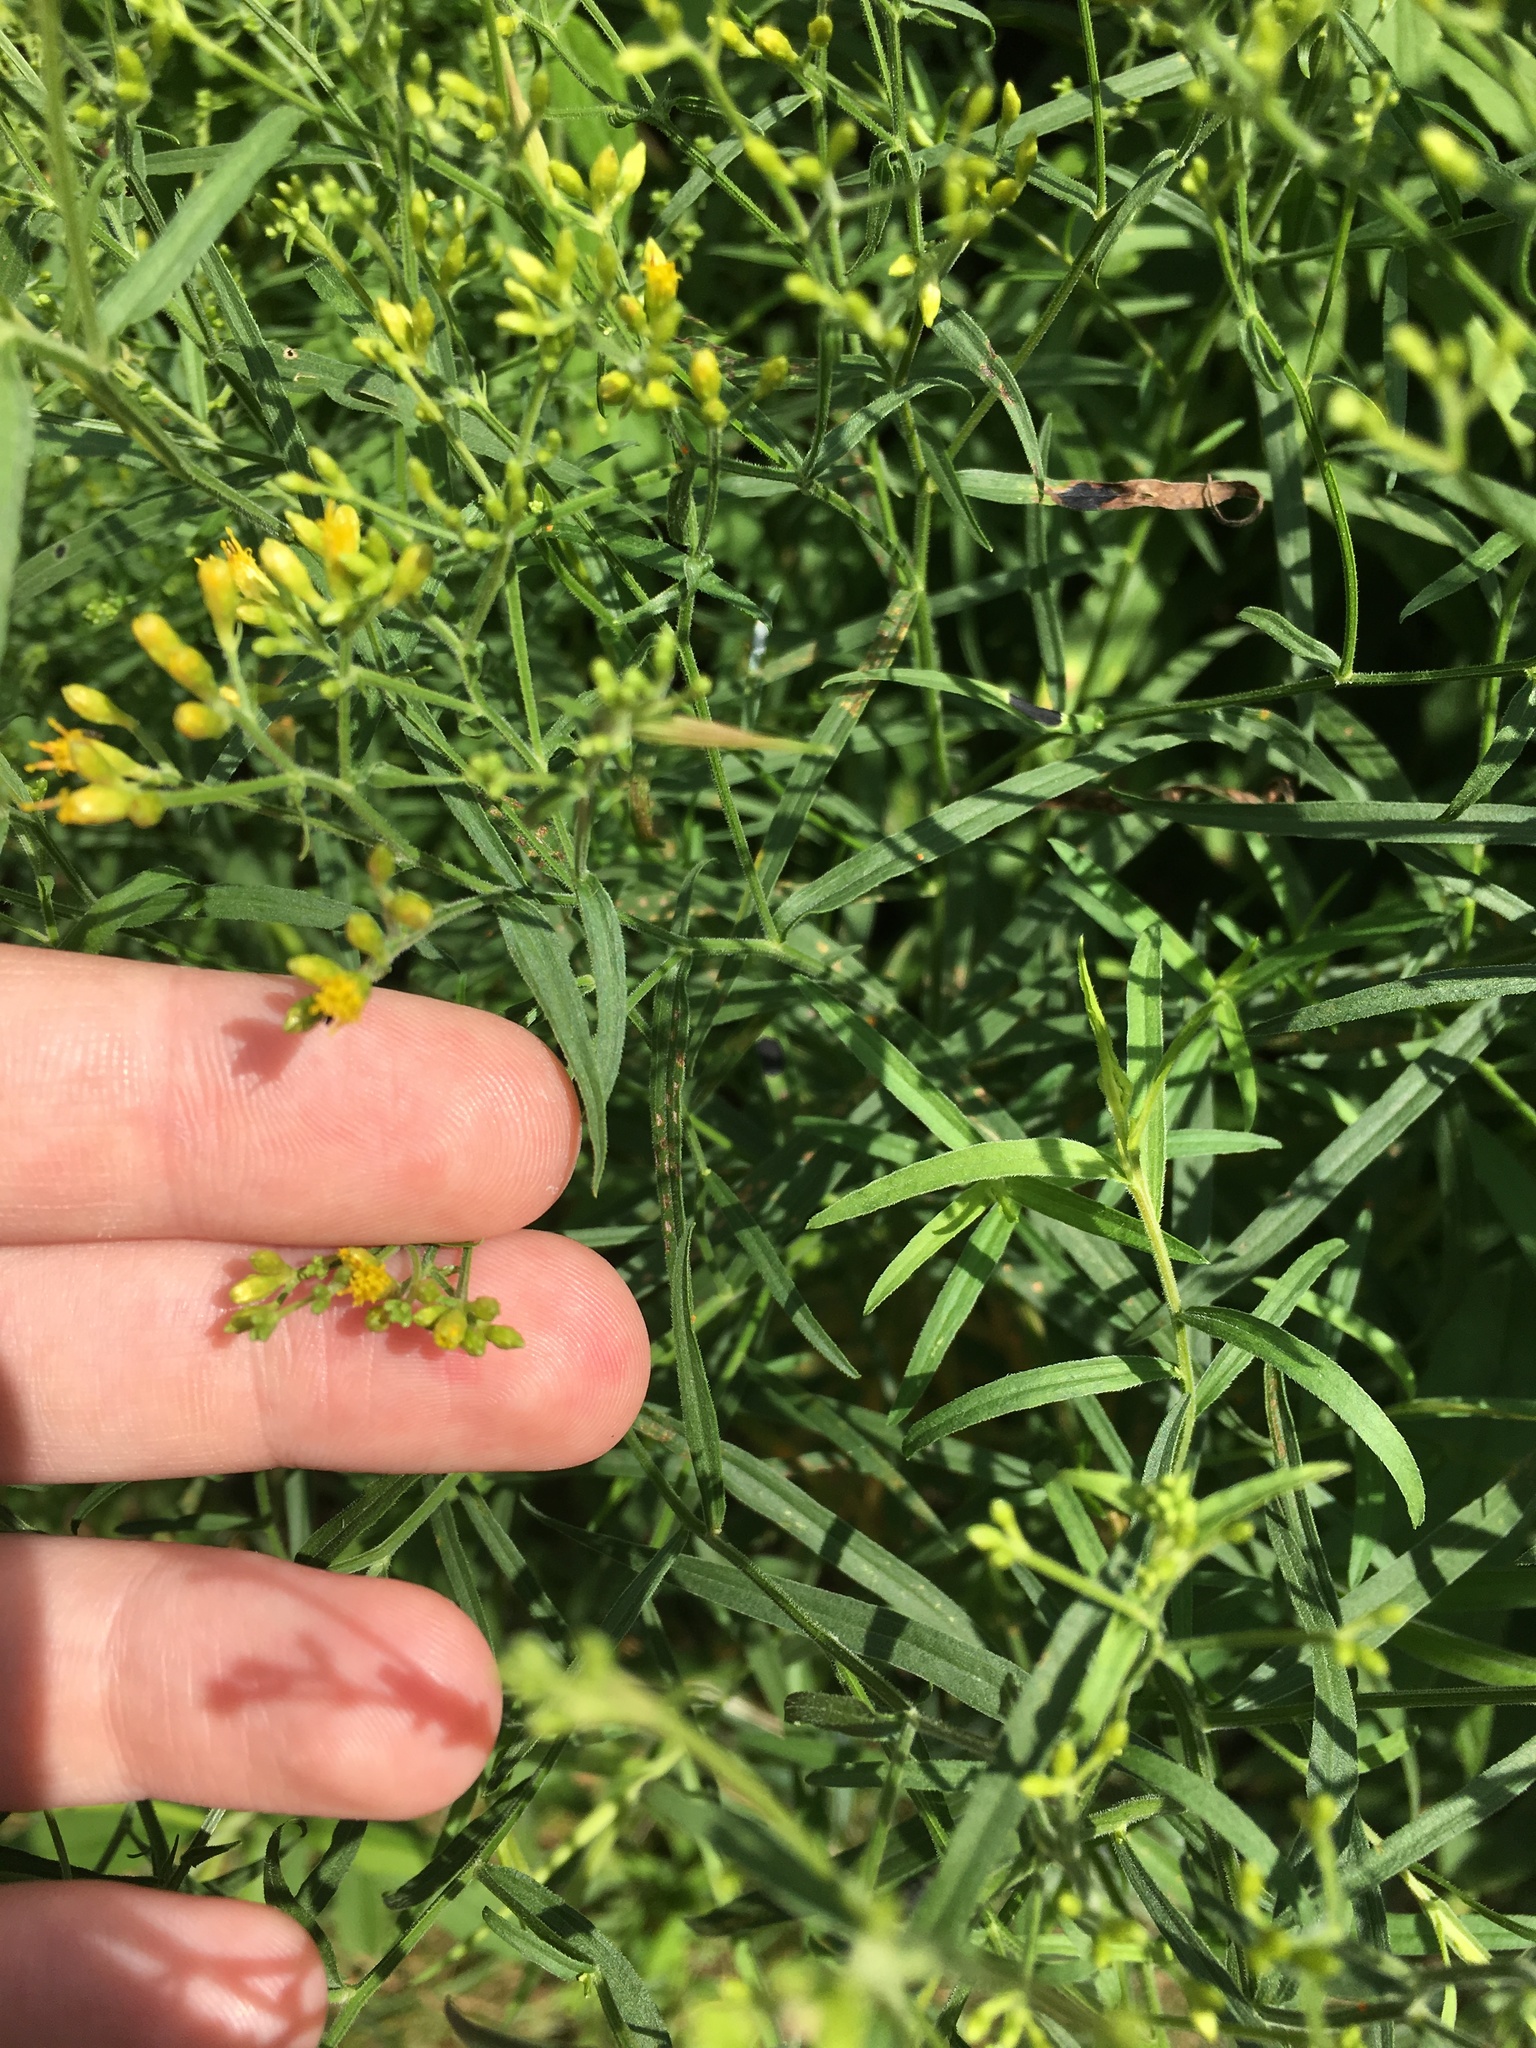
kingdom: Plantae
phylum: Tracheophyta
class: Magnoliopsida
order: Asterales
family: Asteraceae
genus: Euthamia
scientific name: Euthamia graminifolia
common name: Common goldentop
